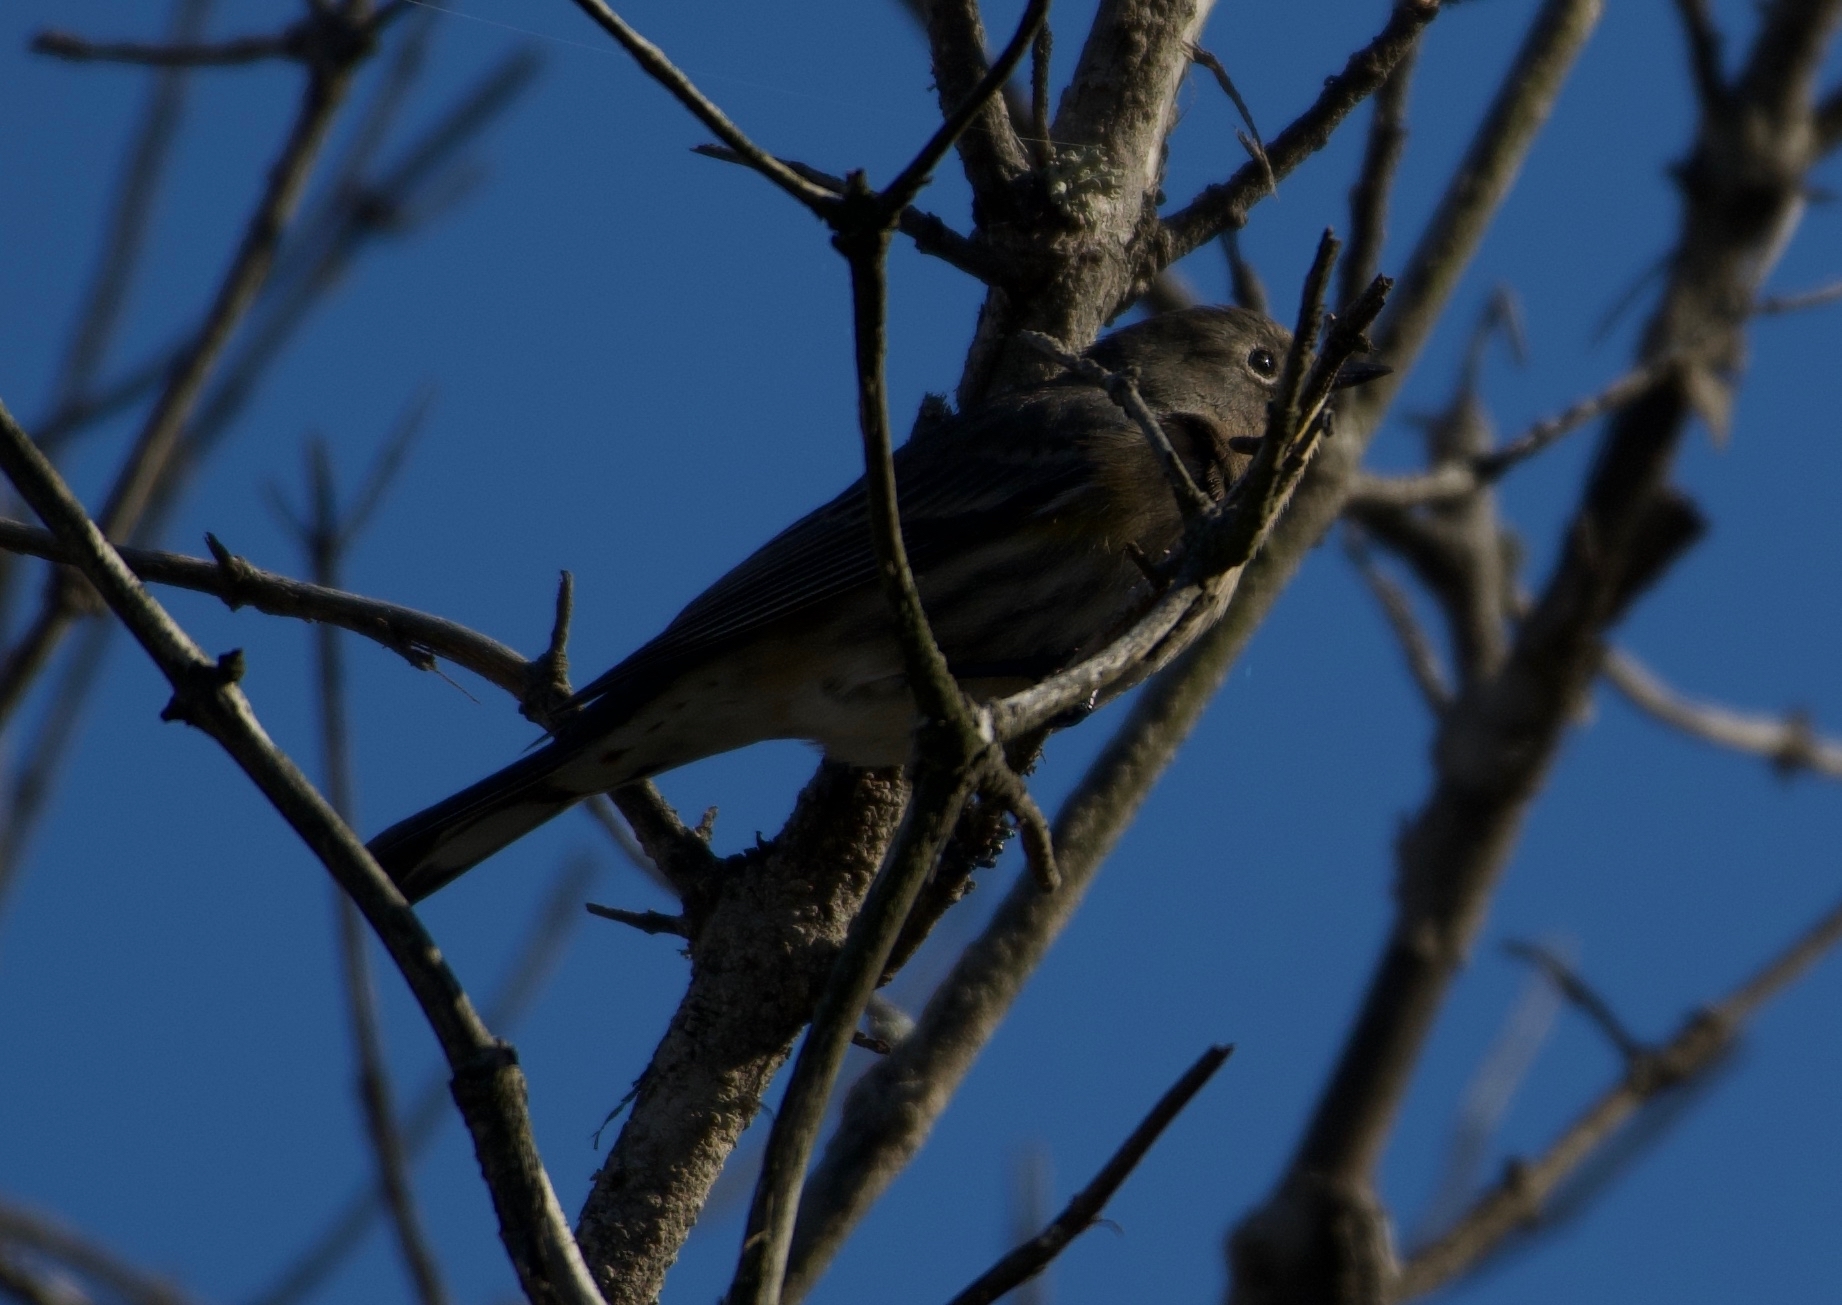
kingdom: Animalia
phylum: Chordata
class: Aves
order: Passeriformes
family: Parulidae
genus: Setophaga
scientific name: Setophaga coronata
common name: Myrtle warbler
